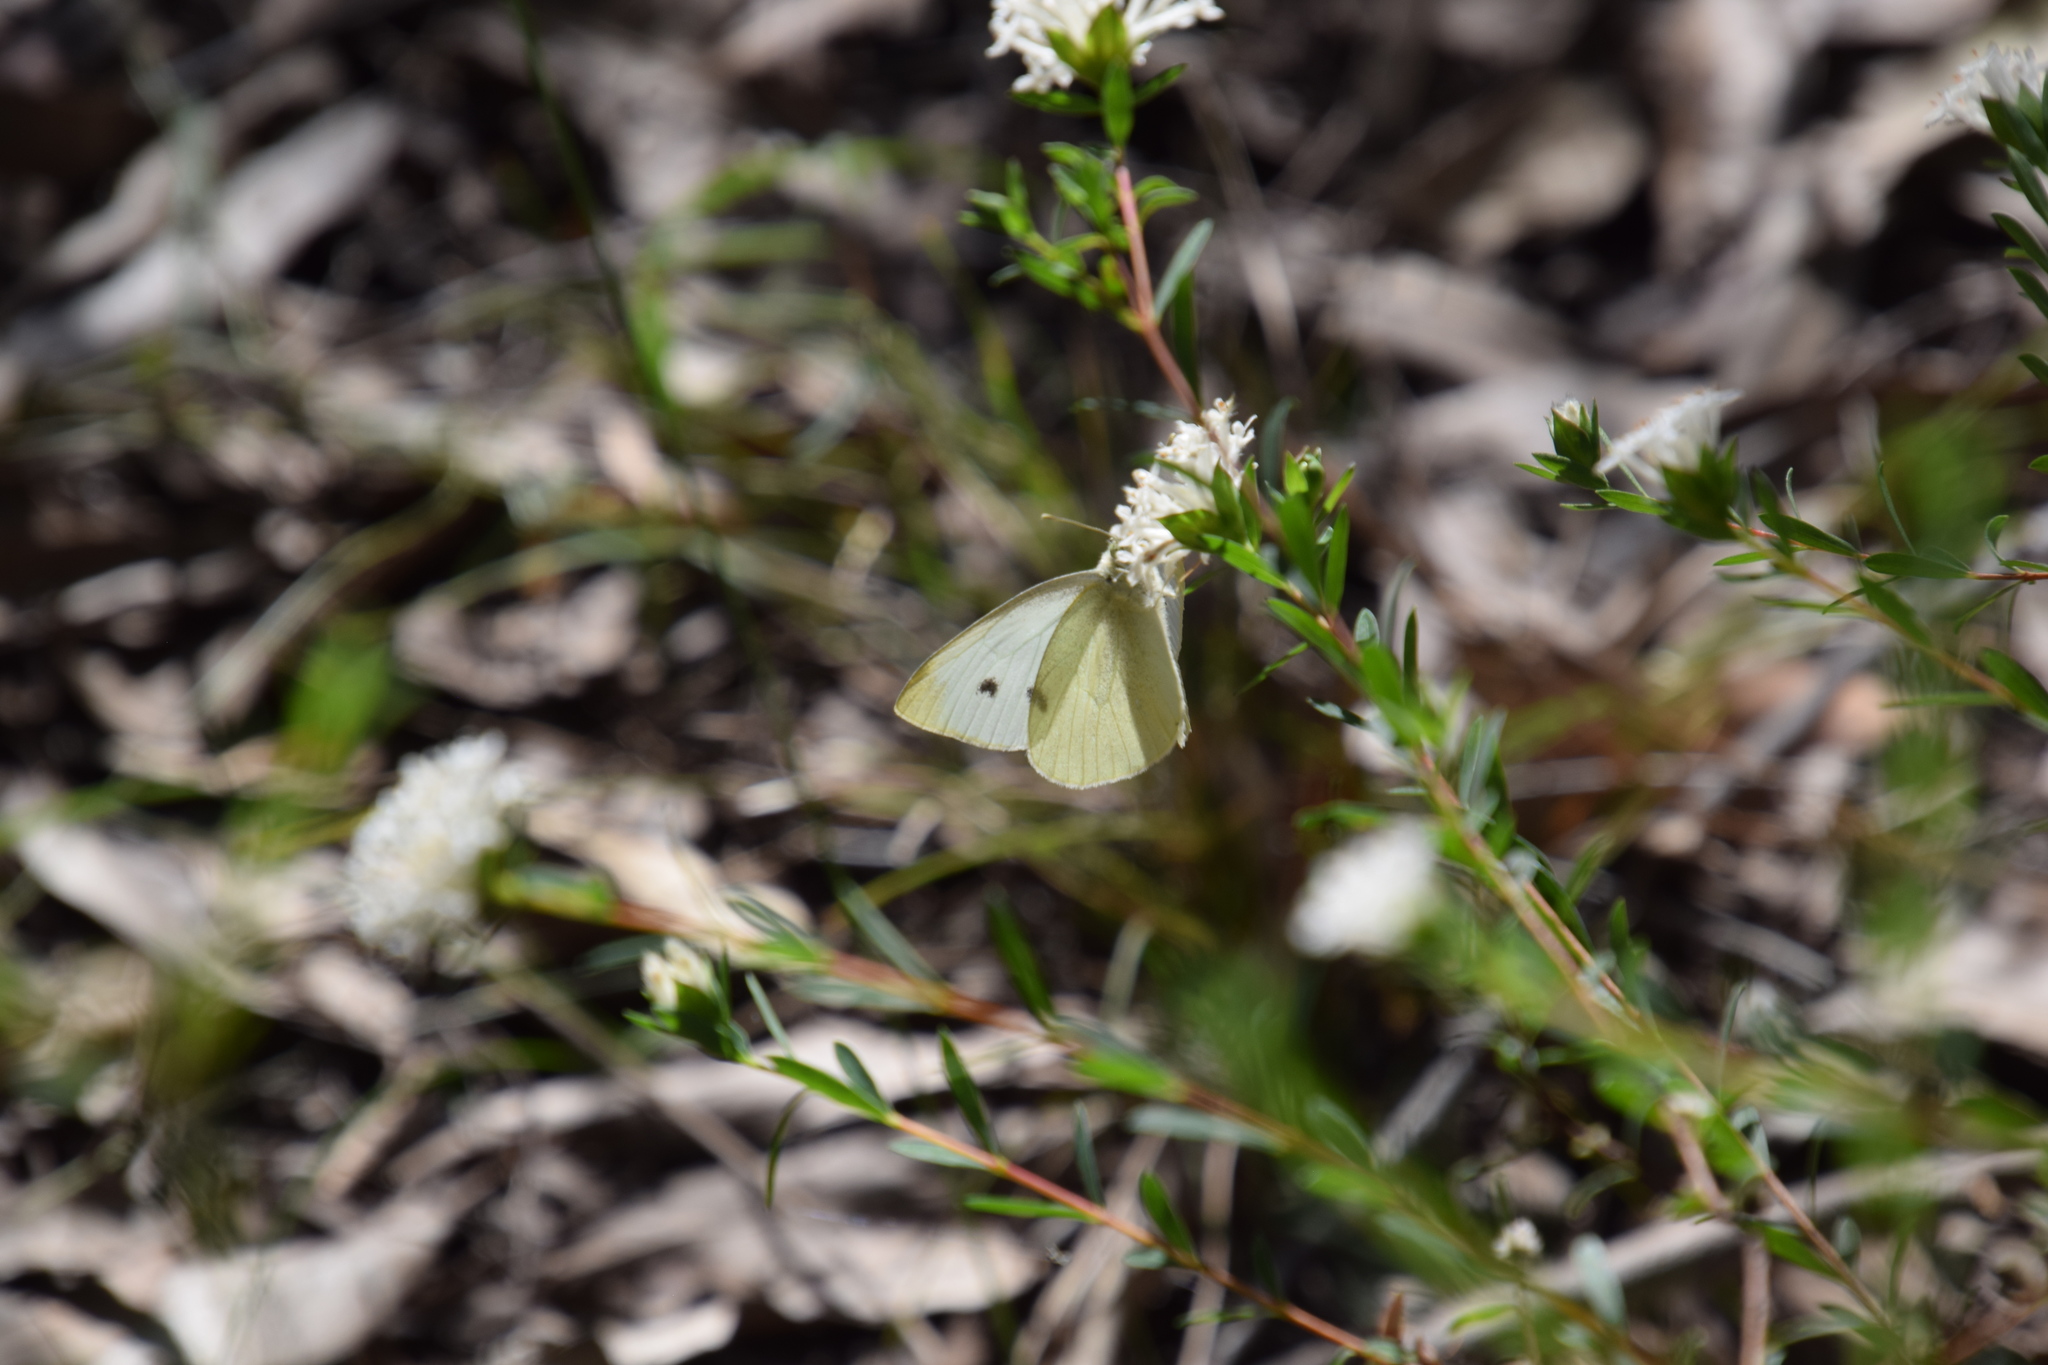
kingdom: Animalia
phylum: Arthropoda
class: Insecta
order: Lepidoptera
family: Pieridae
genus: Pieris
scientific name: Pieris rapae
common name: Small white
